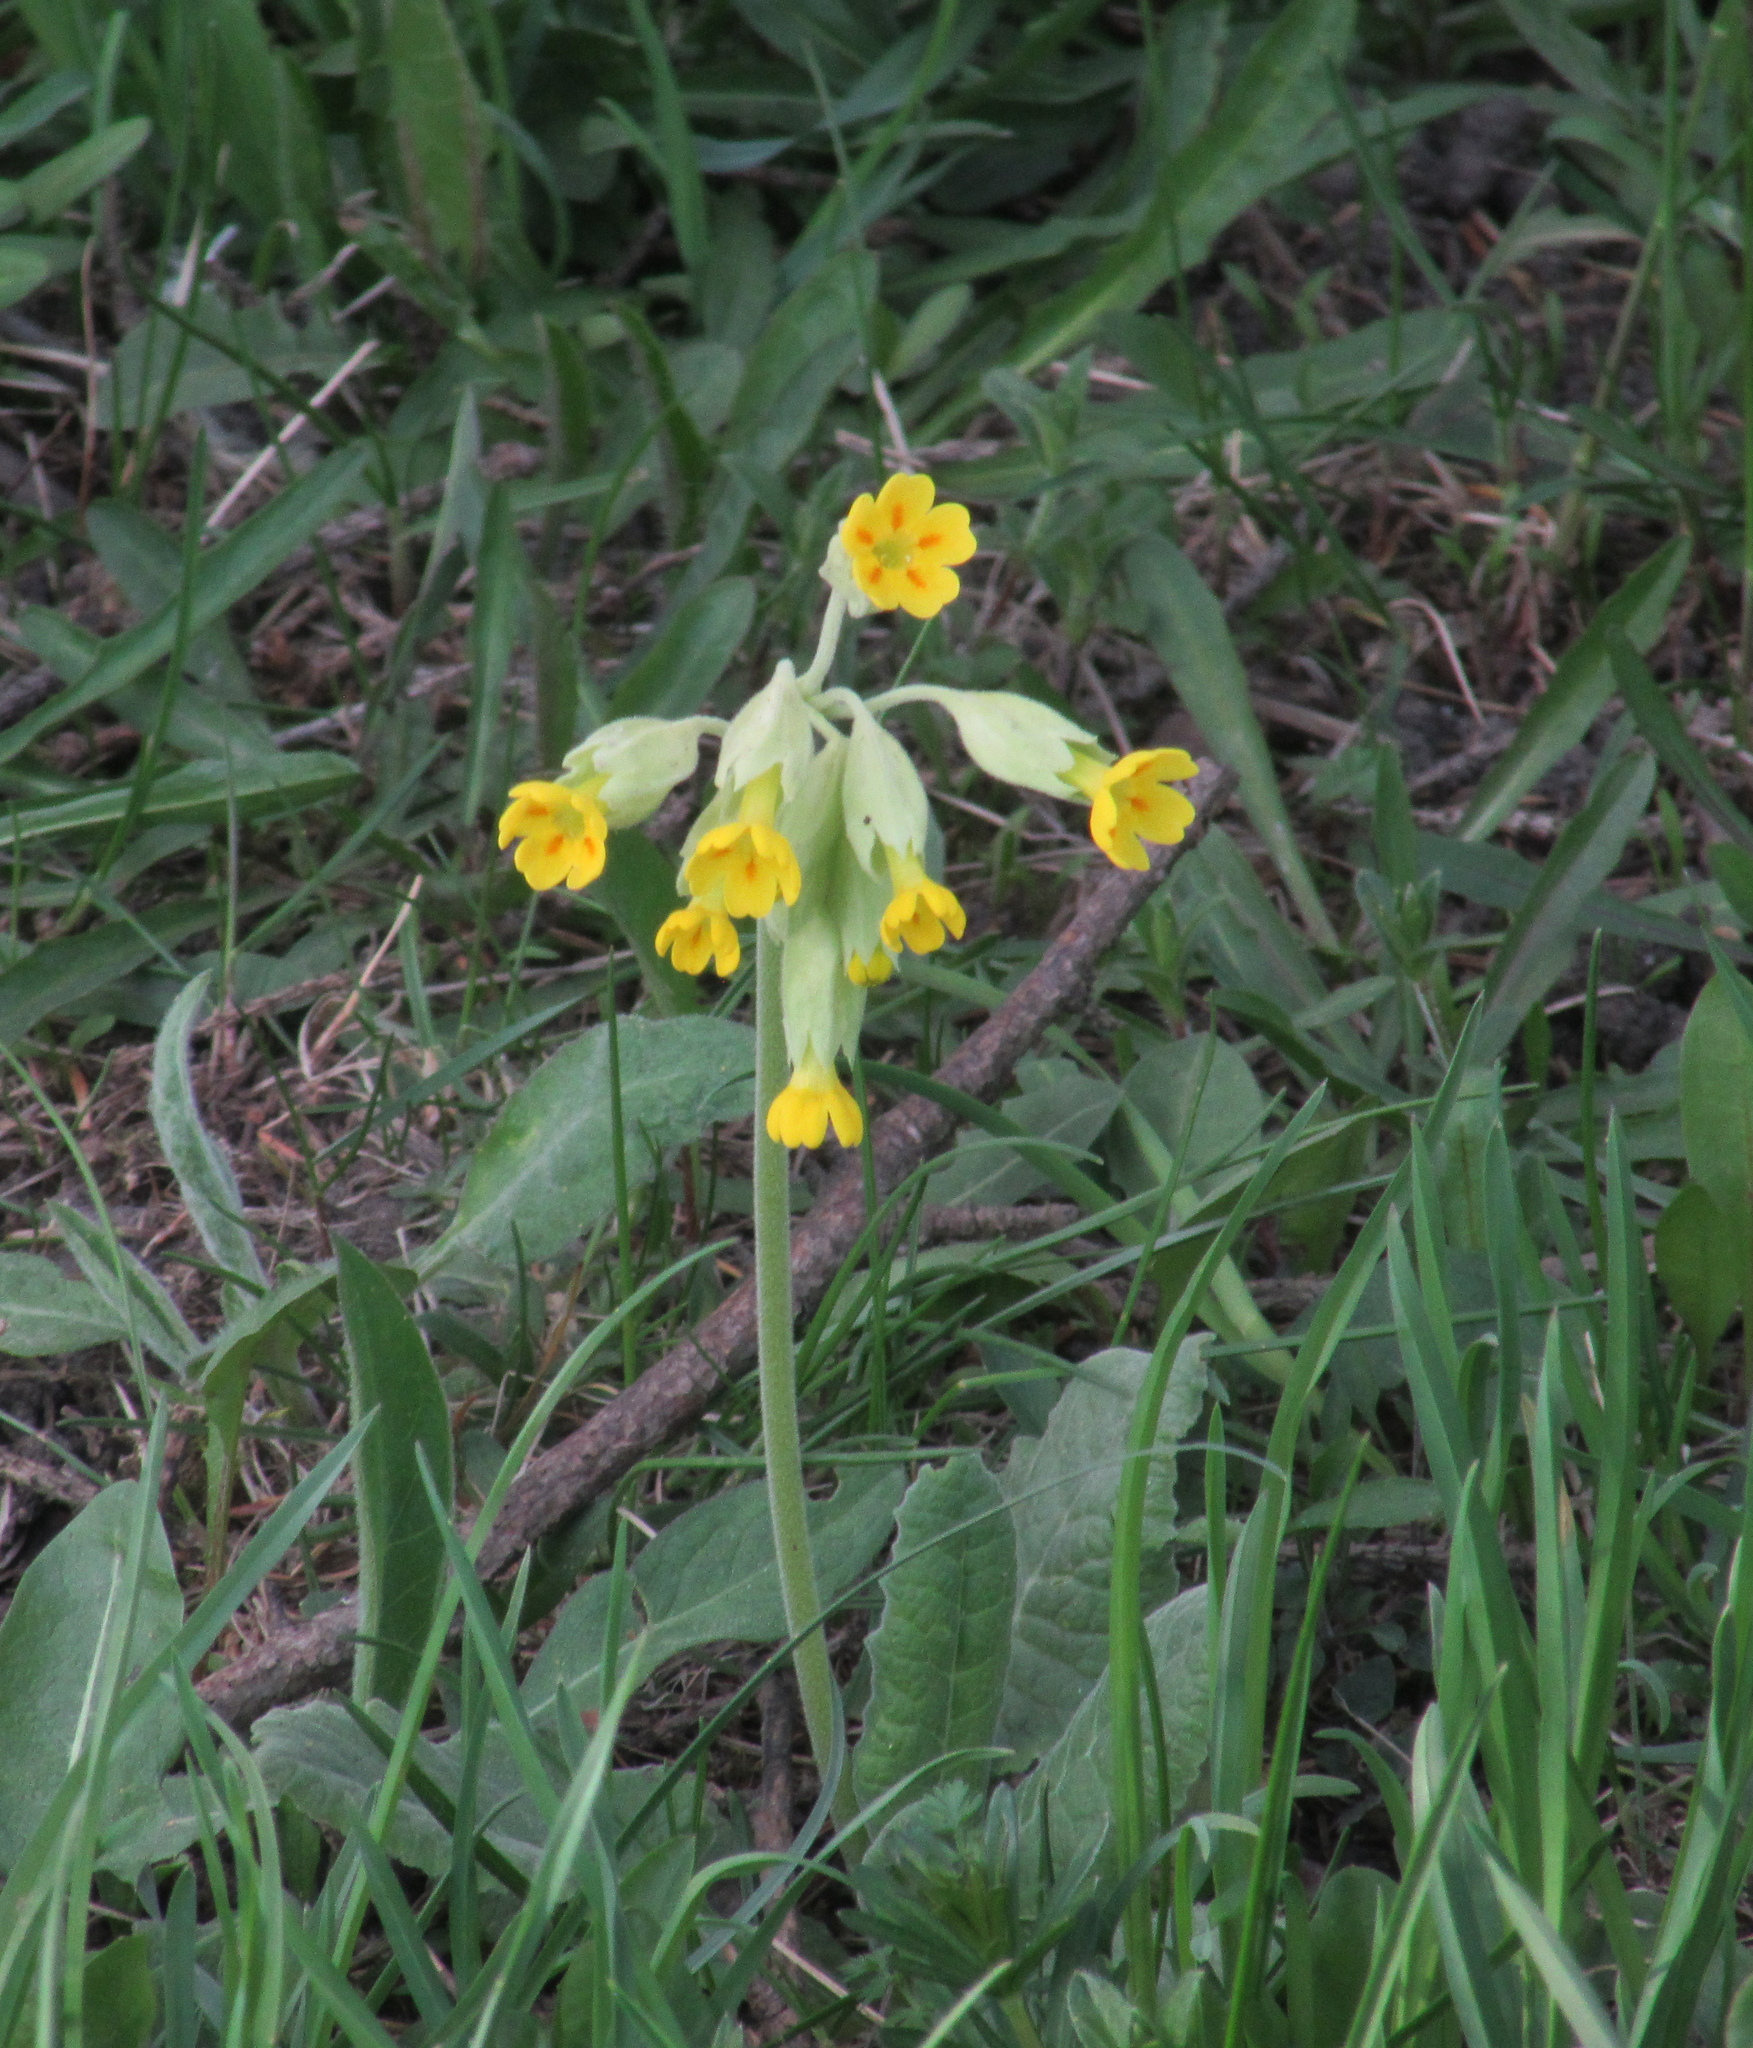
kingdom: Plantae
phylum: Tracheophyta
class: Magnoliopsida
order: Ericales
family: Primulaceae
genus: Primula
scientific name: Primula veris
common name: Cowslip
